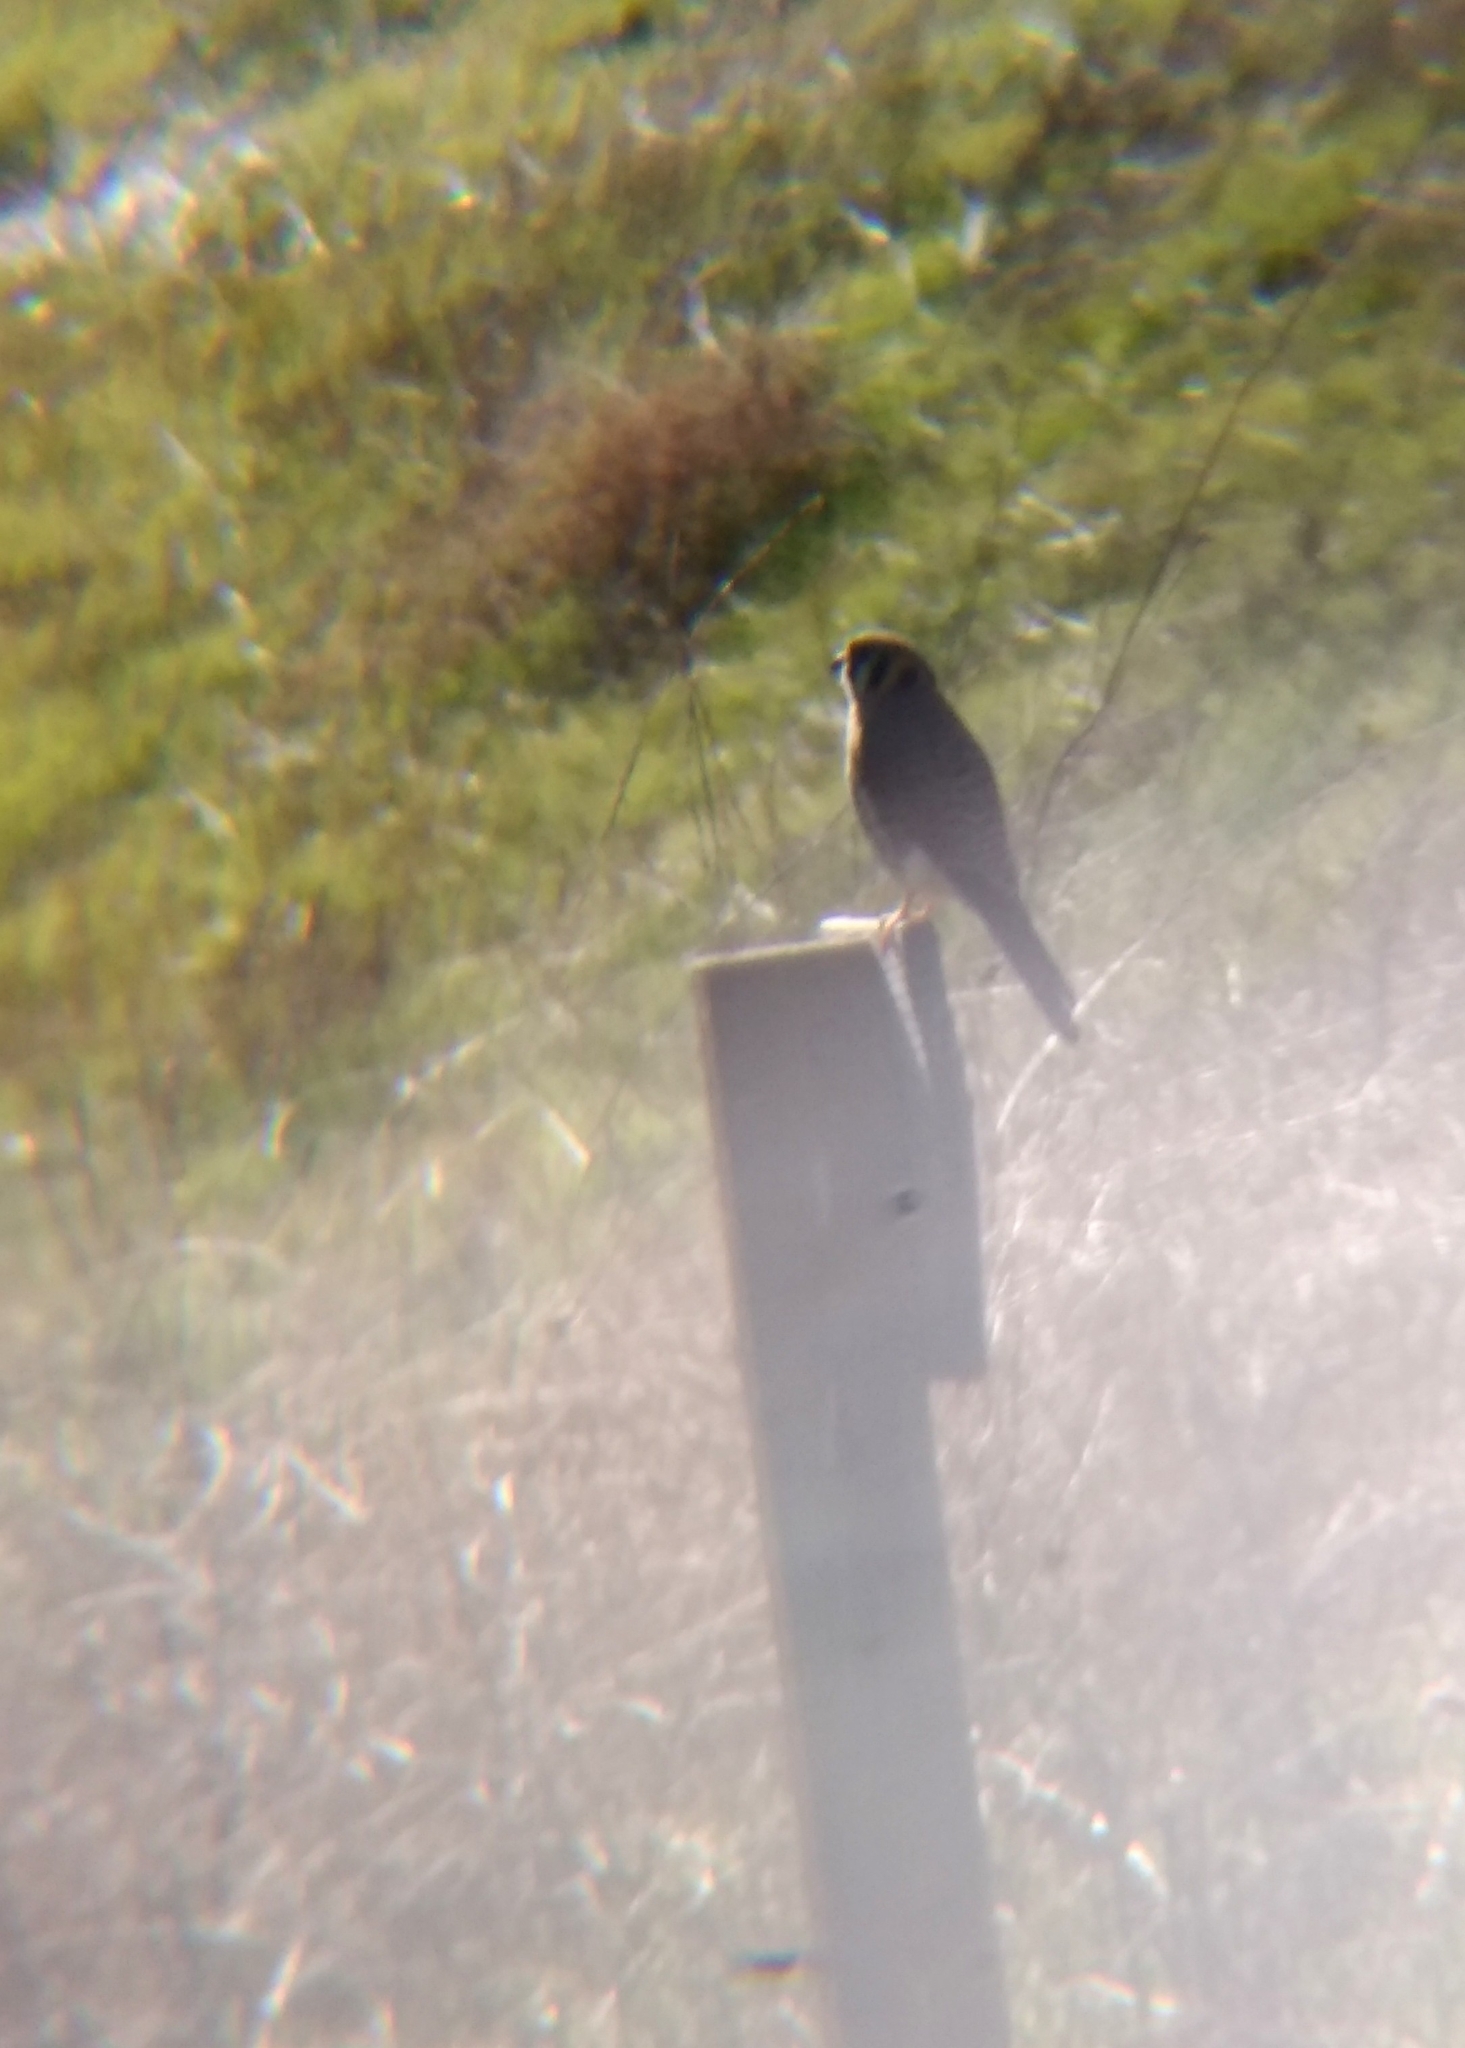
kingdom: Animalia
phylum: Chordata
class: Aves
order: Falconiformes
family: Falconidae
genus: Falco
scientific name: Falco sparverius
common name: American kestrel
